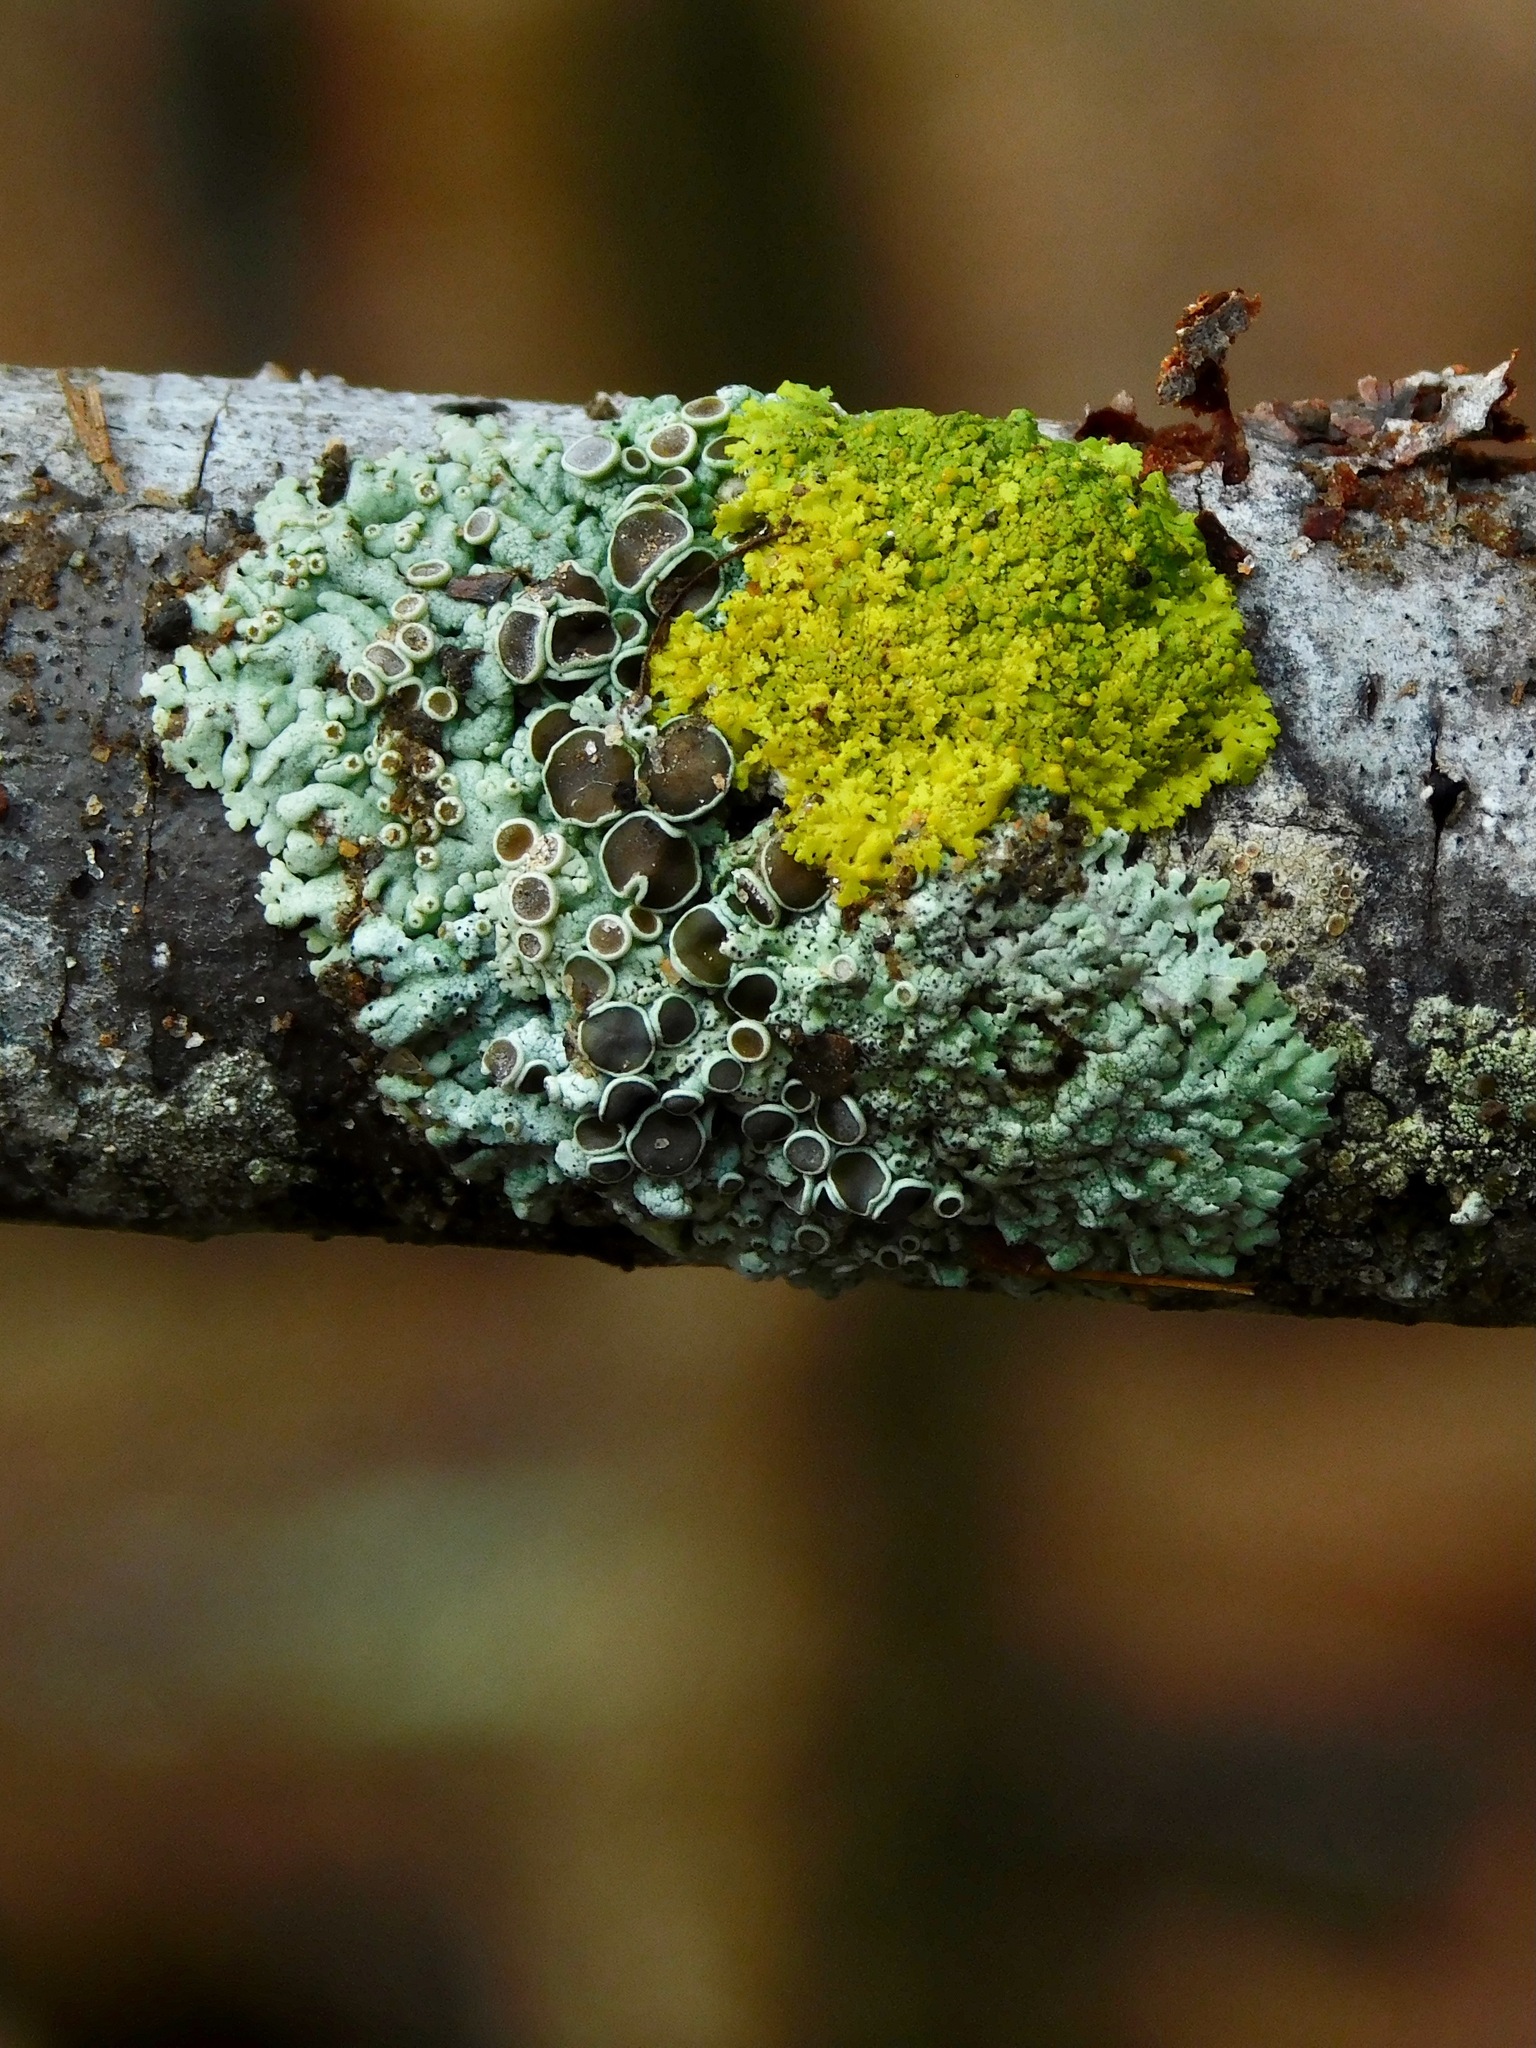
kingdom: Fungi
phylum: Ascomycota
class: Lecanoromycetes
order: Caliciales
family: Physciaceae
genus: Physcia
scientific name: Physcia stellaris
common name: Star rosette lichen
